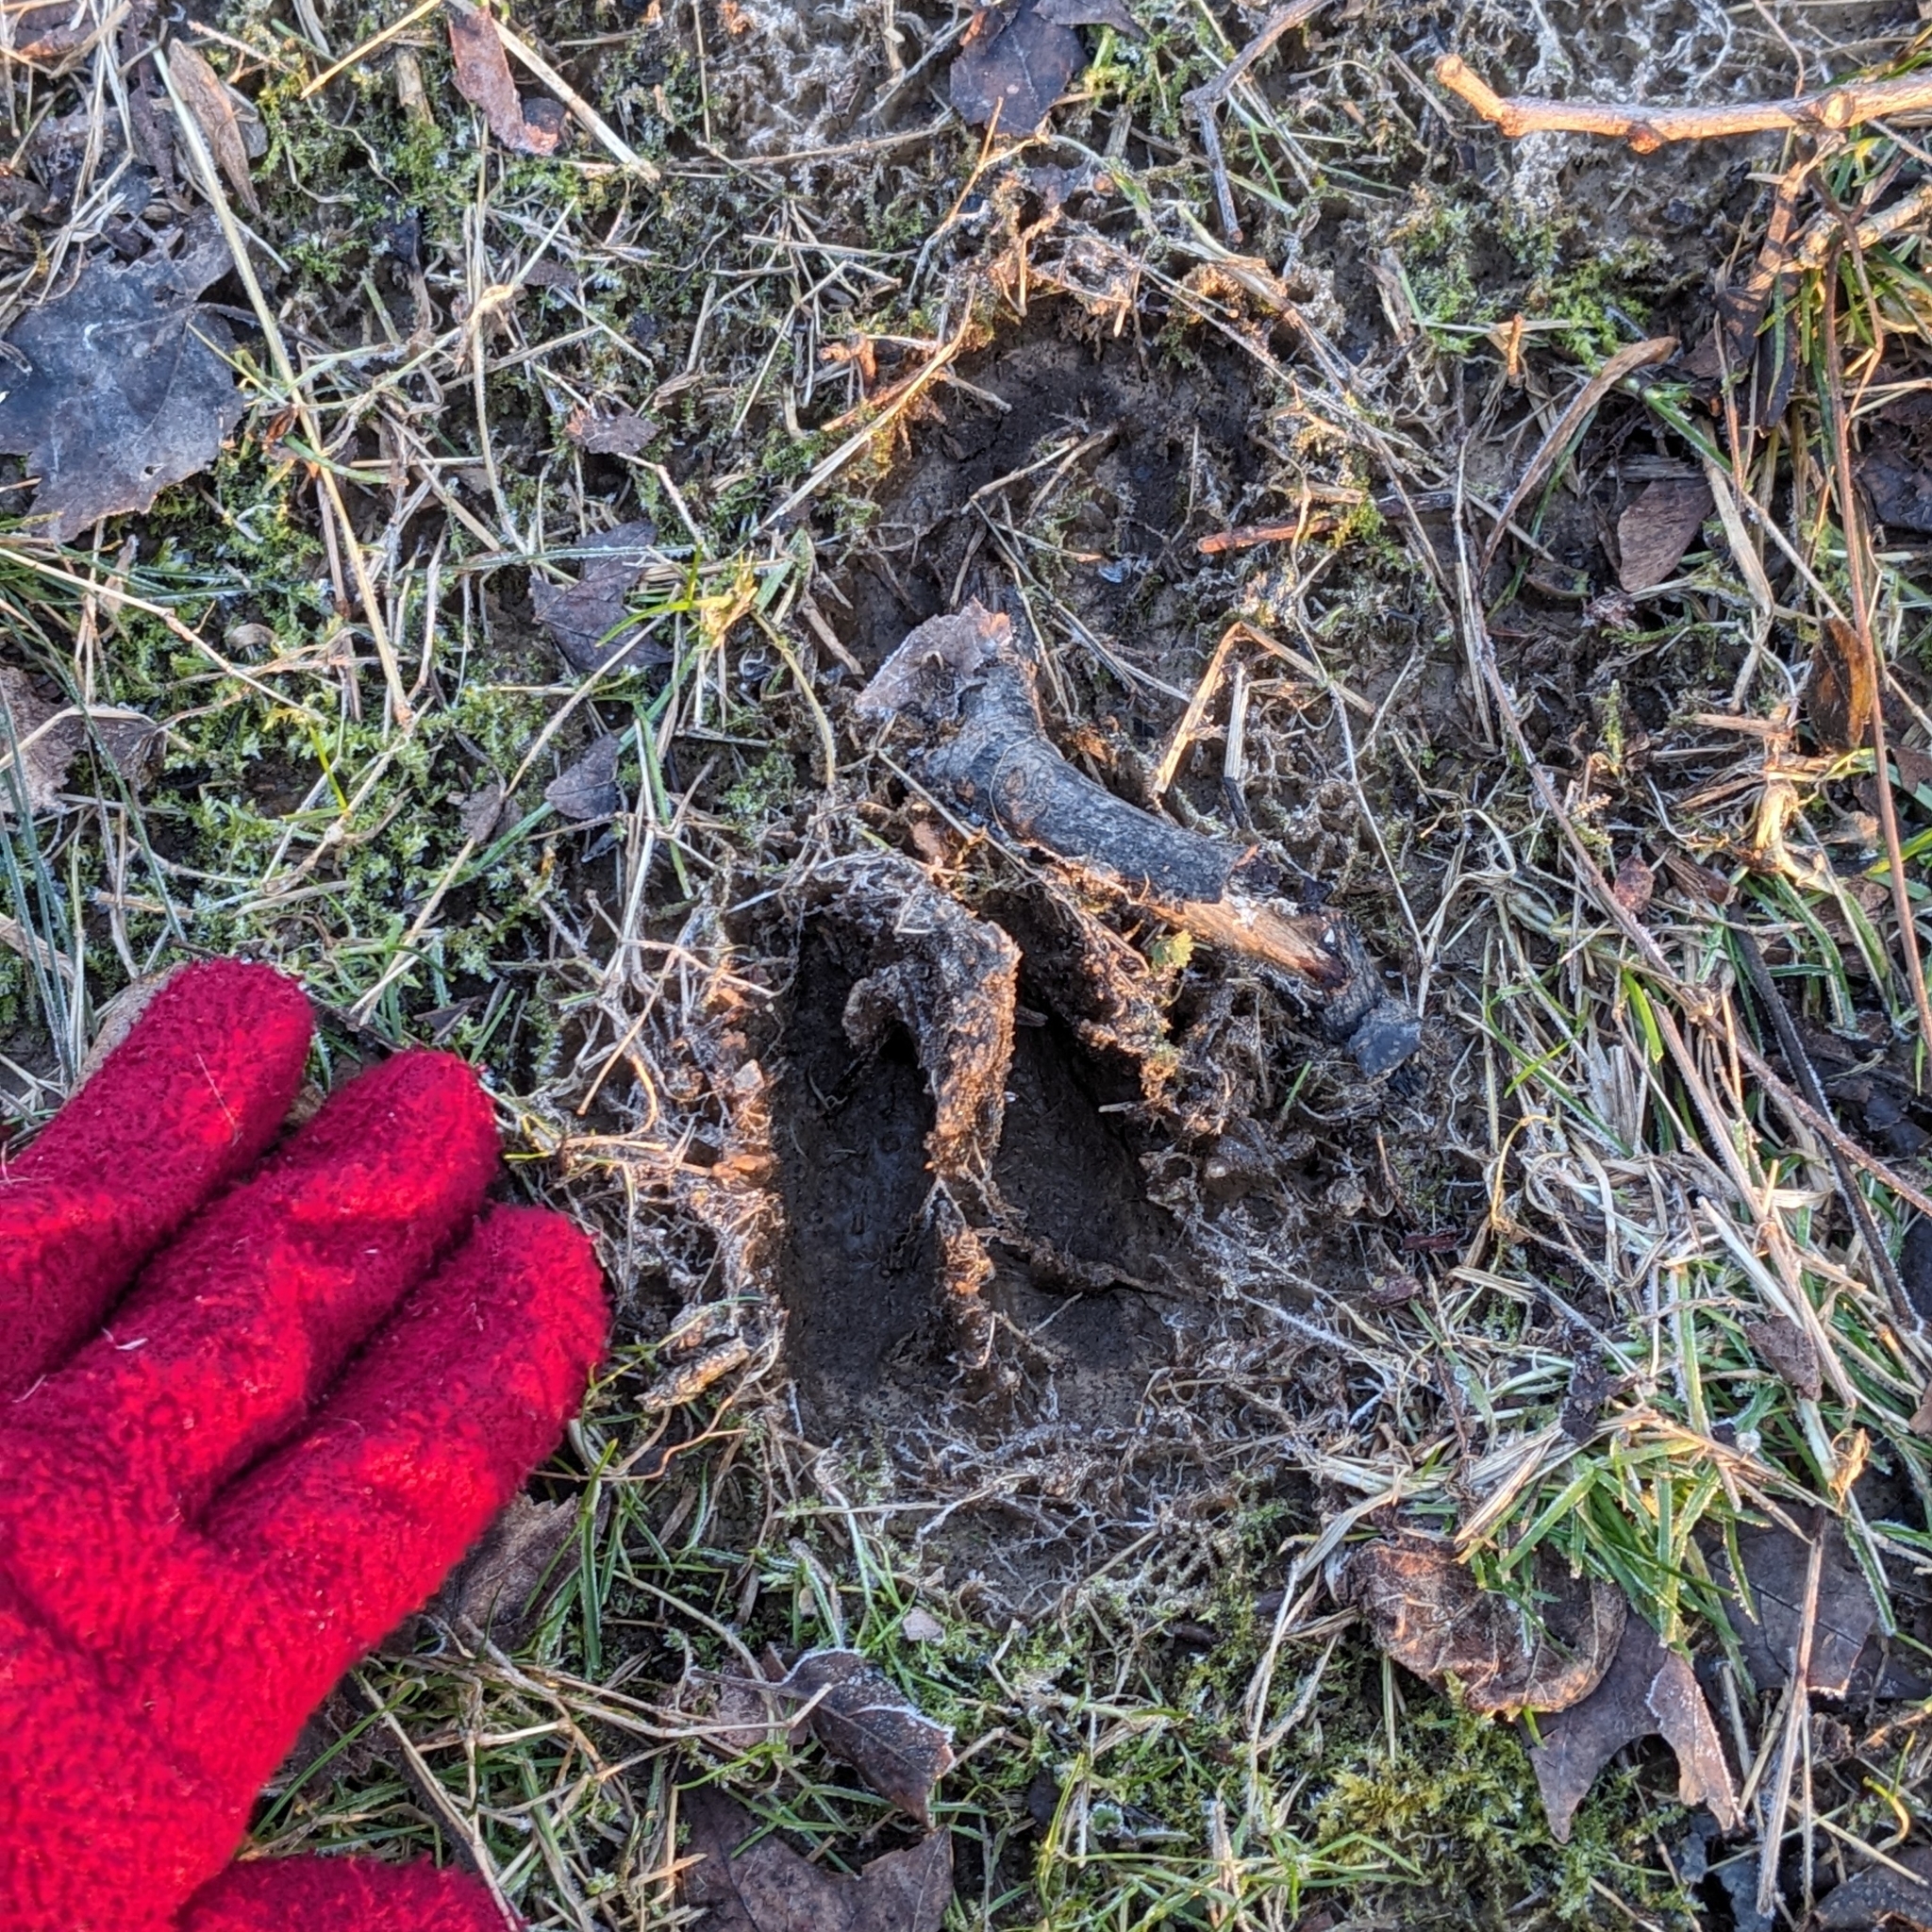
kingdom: Animalia
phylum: Chordata
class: Mammalia
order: Artiodactyla
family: Cervidae
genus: Odocoileus
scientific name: Odocoileus virginianus
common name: White-tailed deer
